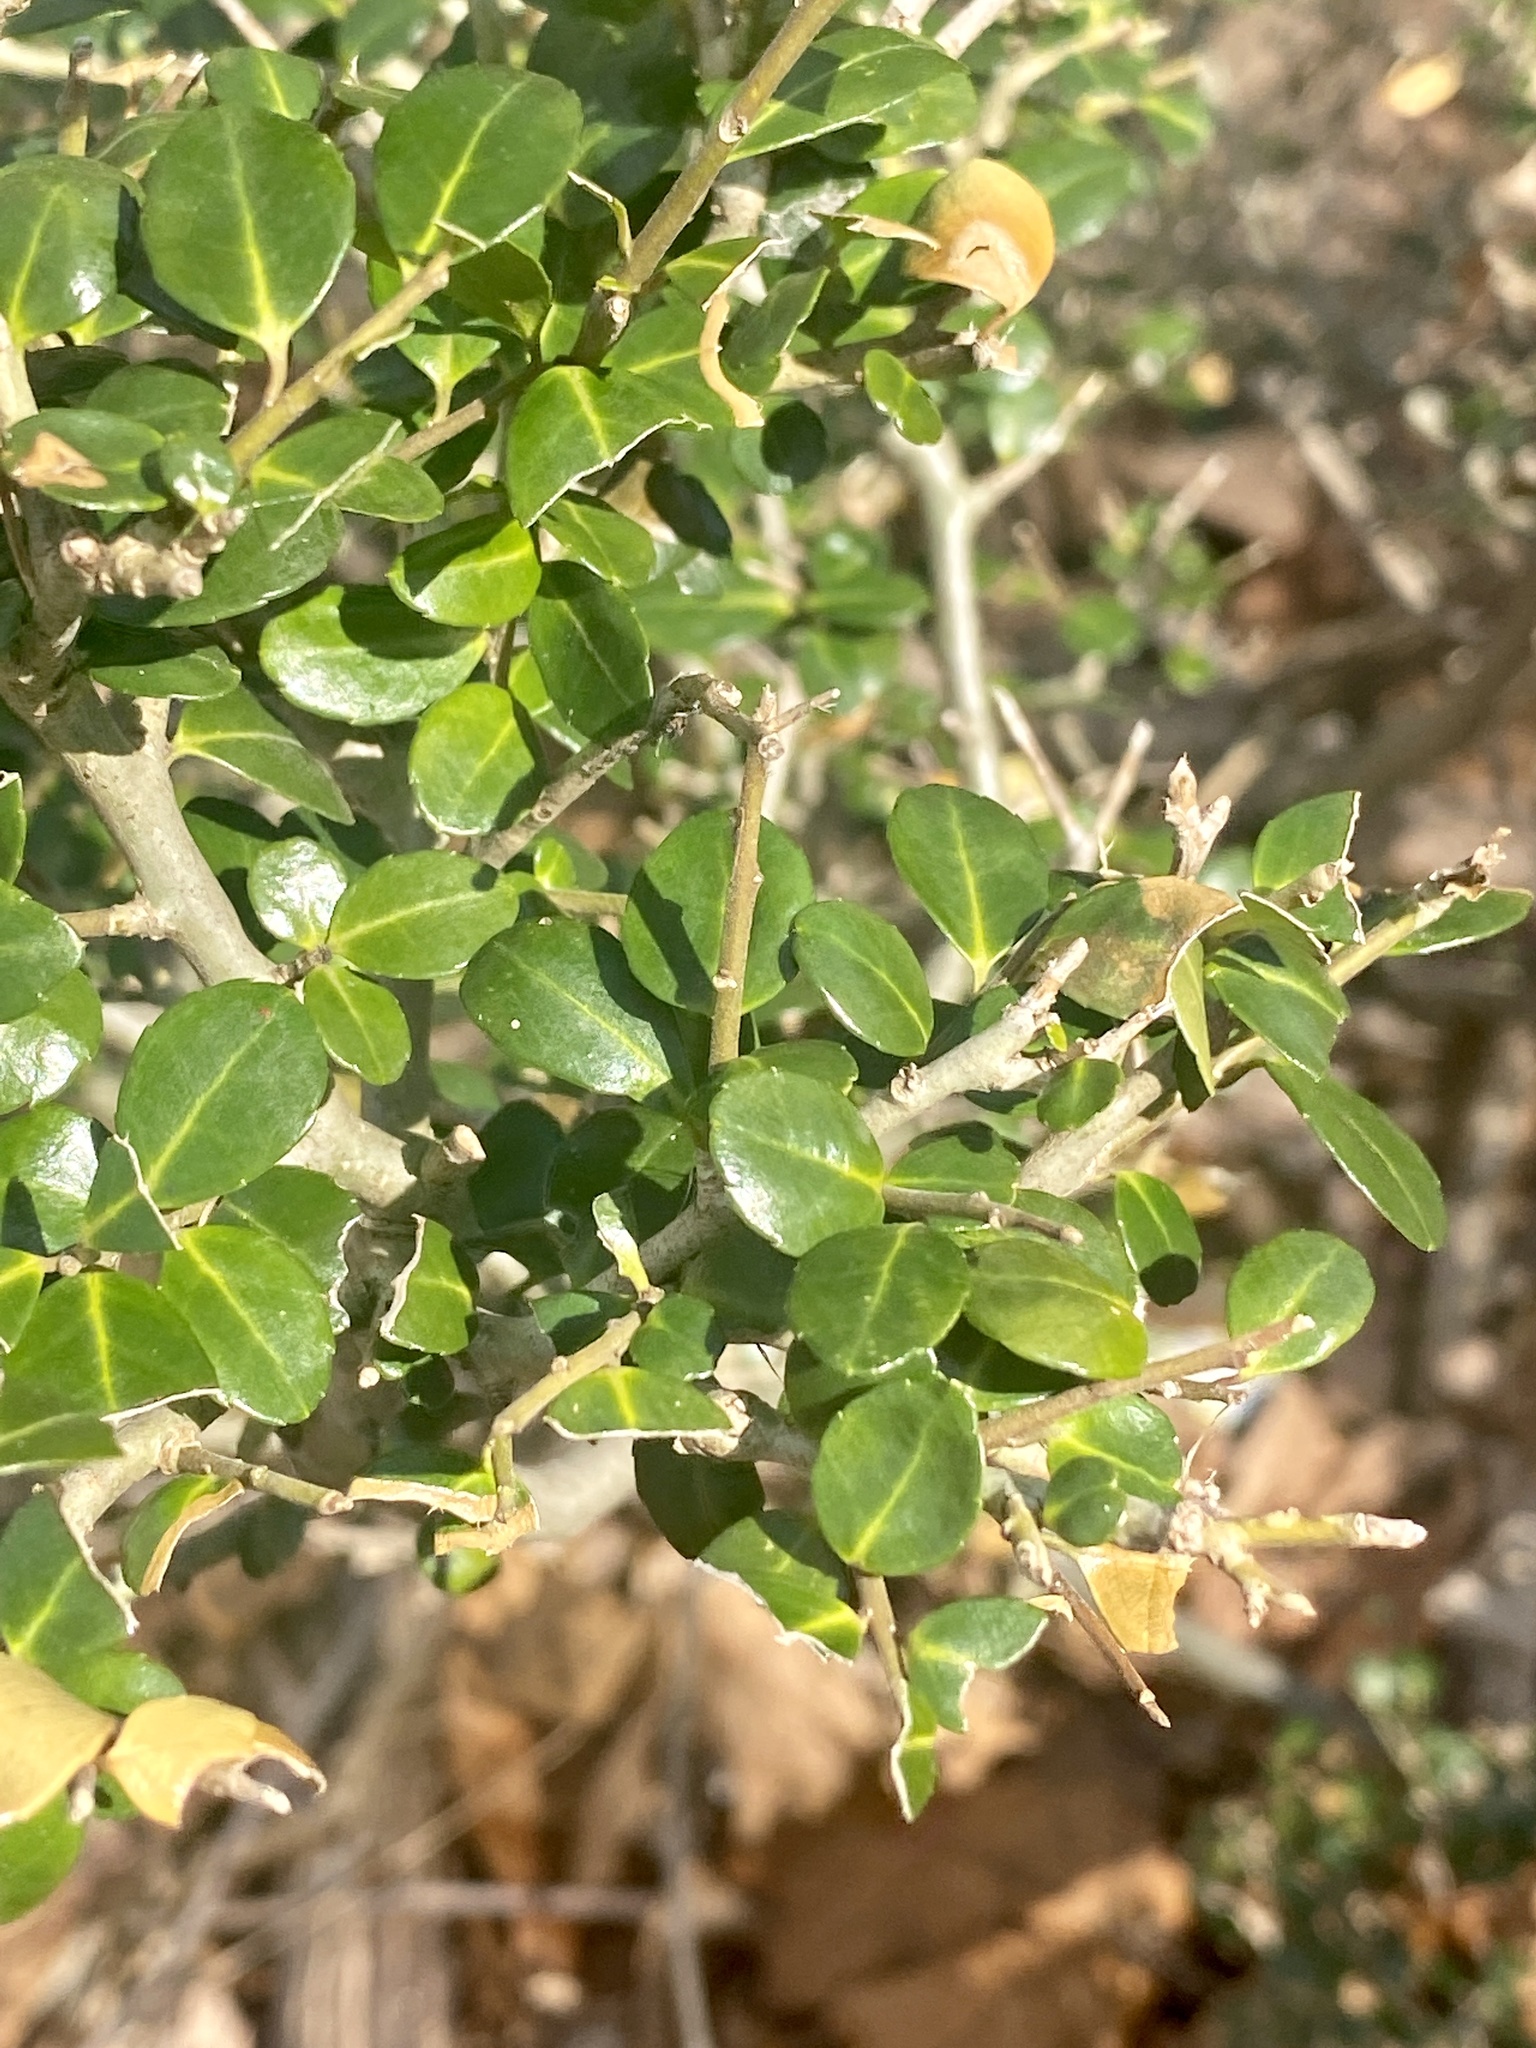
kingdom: Plantae
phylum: Tracheophyta
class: Magnoliopsida
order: Aquifoliales
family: Aquifoliaceae
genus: Ilex
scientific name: Ilex crenata
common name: Japanese holly
